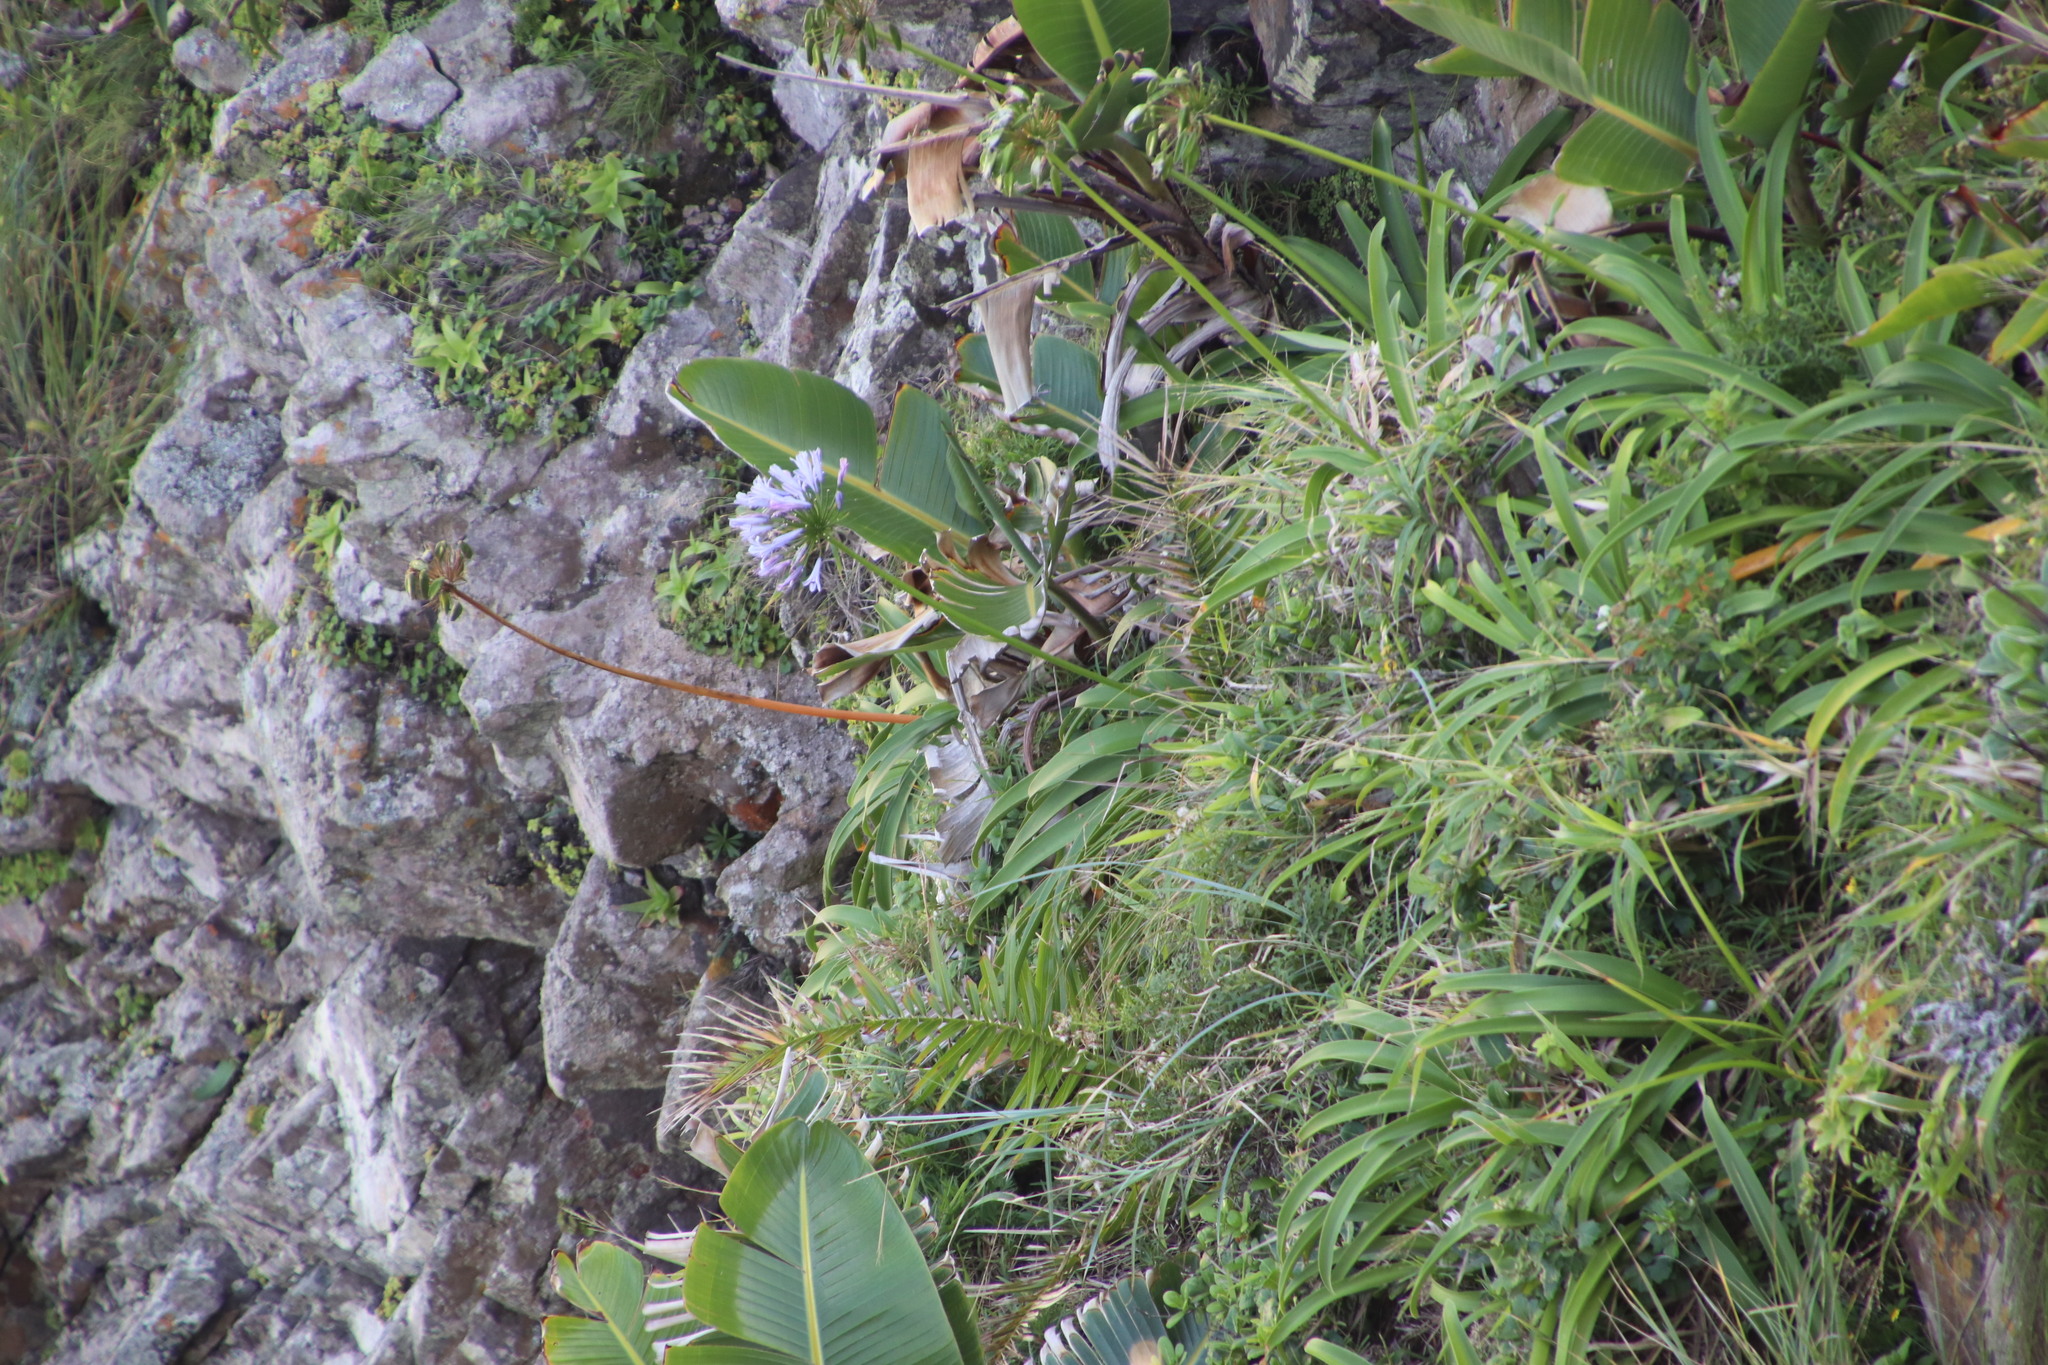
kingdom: Plantae
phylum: Tracheophyta
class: Liliopsida
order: Asparagales
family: Amaryllidaceae
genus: Agapanthus
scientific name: Agapanthus pondoensis
